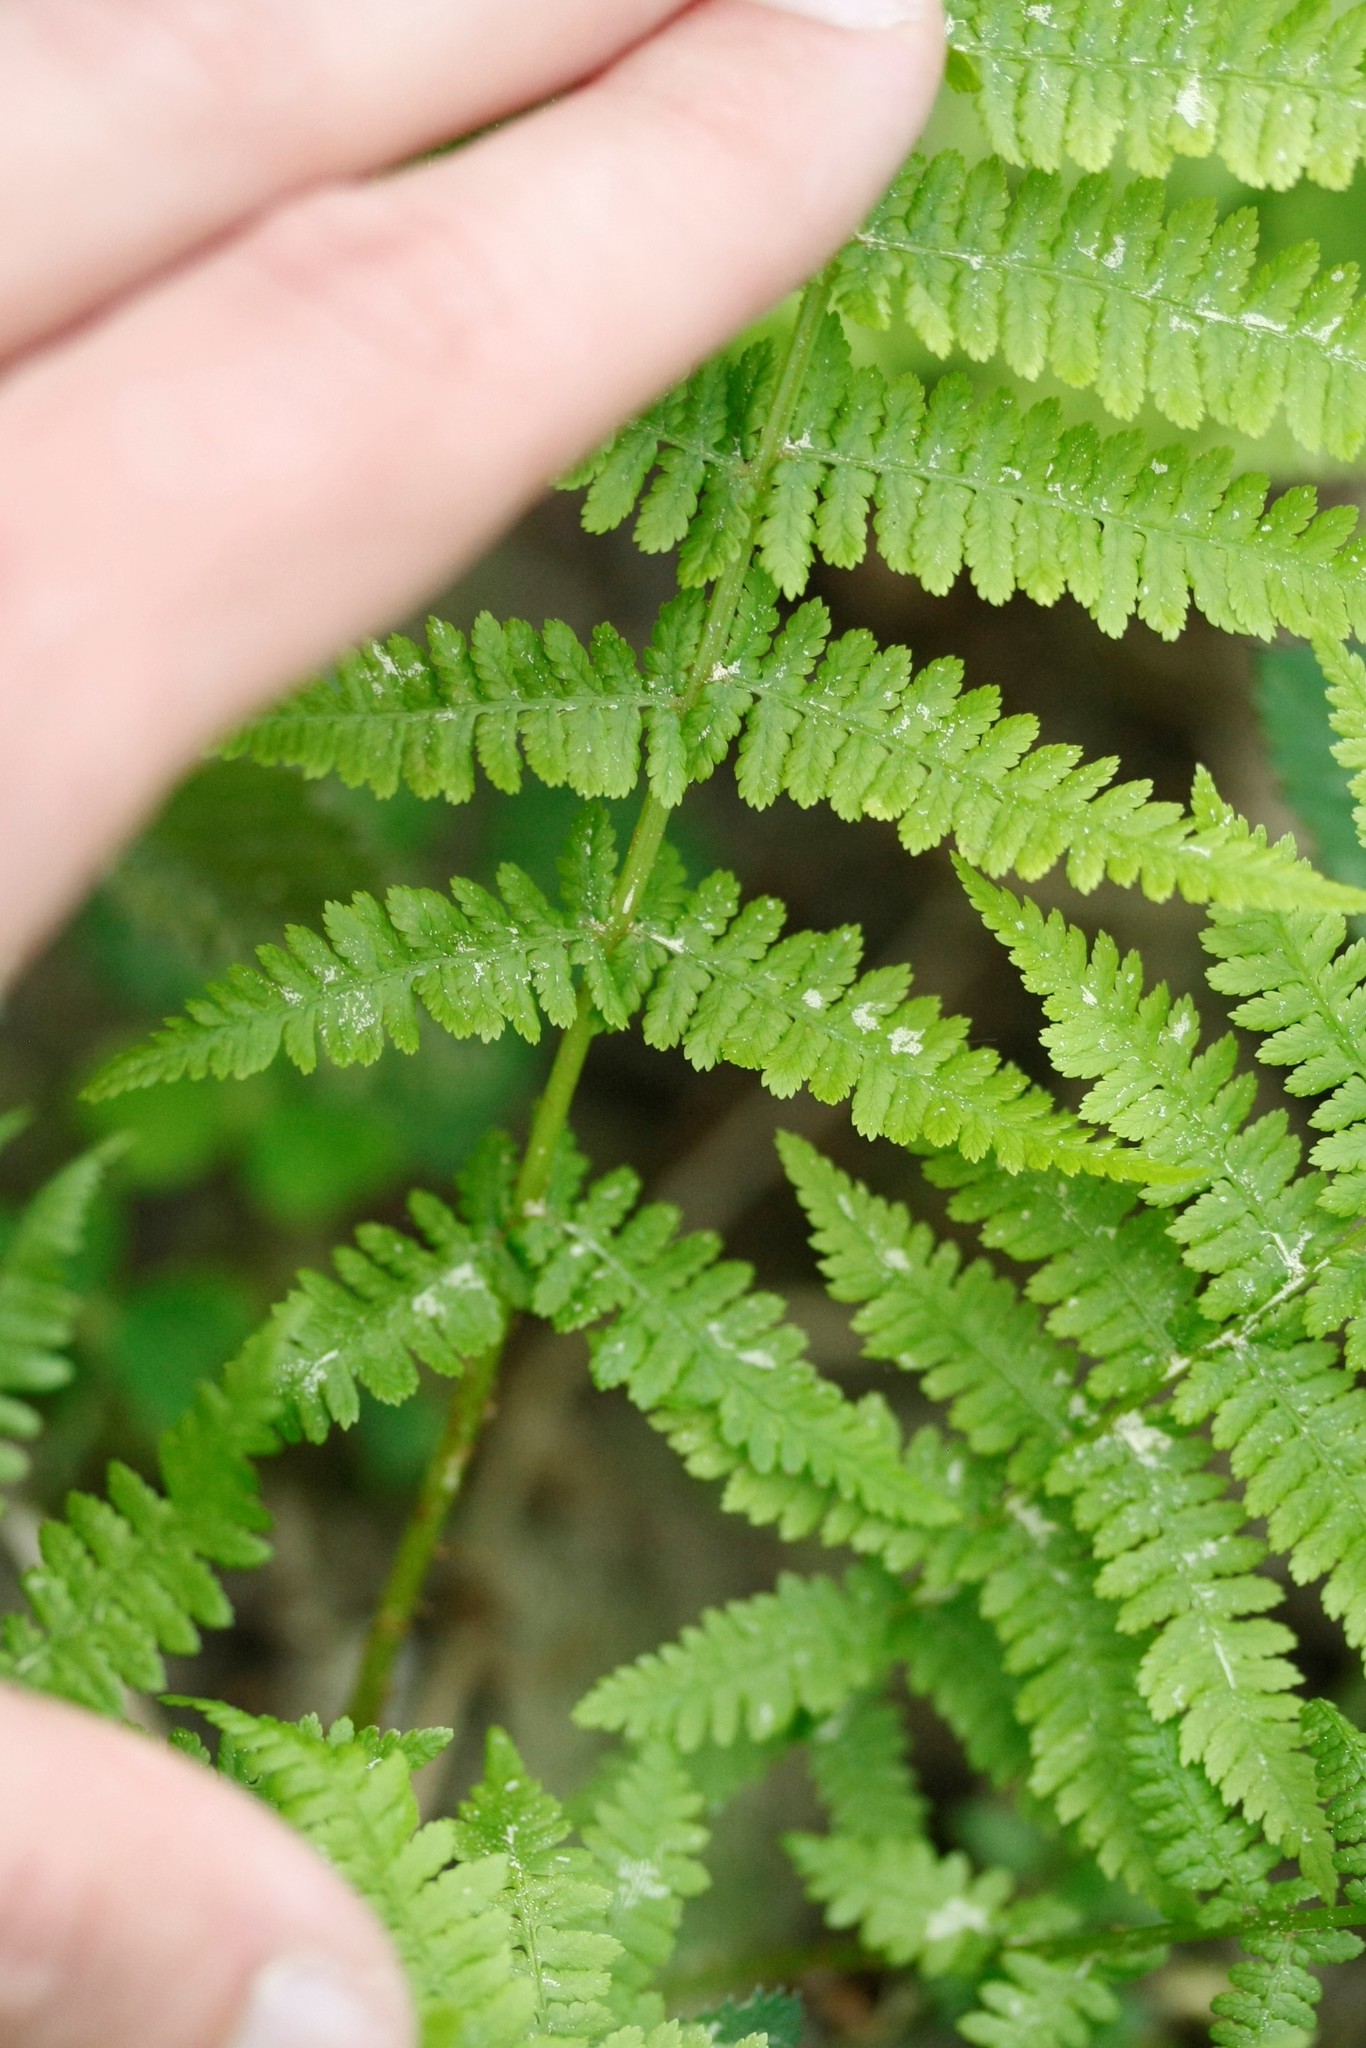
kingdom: Plantae
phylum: Tracheophyta
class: Polypodiopsida
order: Polypodiales
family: Athyriaceae
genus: Athyrium
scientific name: Athyrium filix-femina
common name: Lady fern
